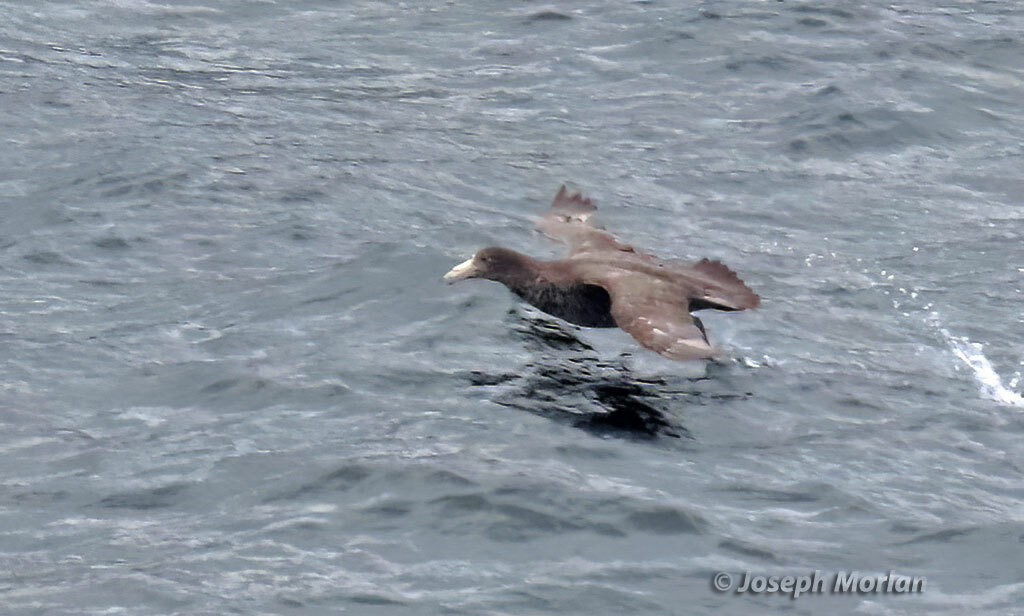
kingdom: Animalia
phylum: Chordata
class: Aves
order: Procellariiformes
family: Procellariidae
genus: Macronectes
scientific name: Macronectes giganteus
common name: Southern giant petrel
